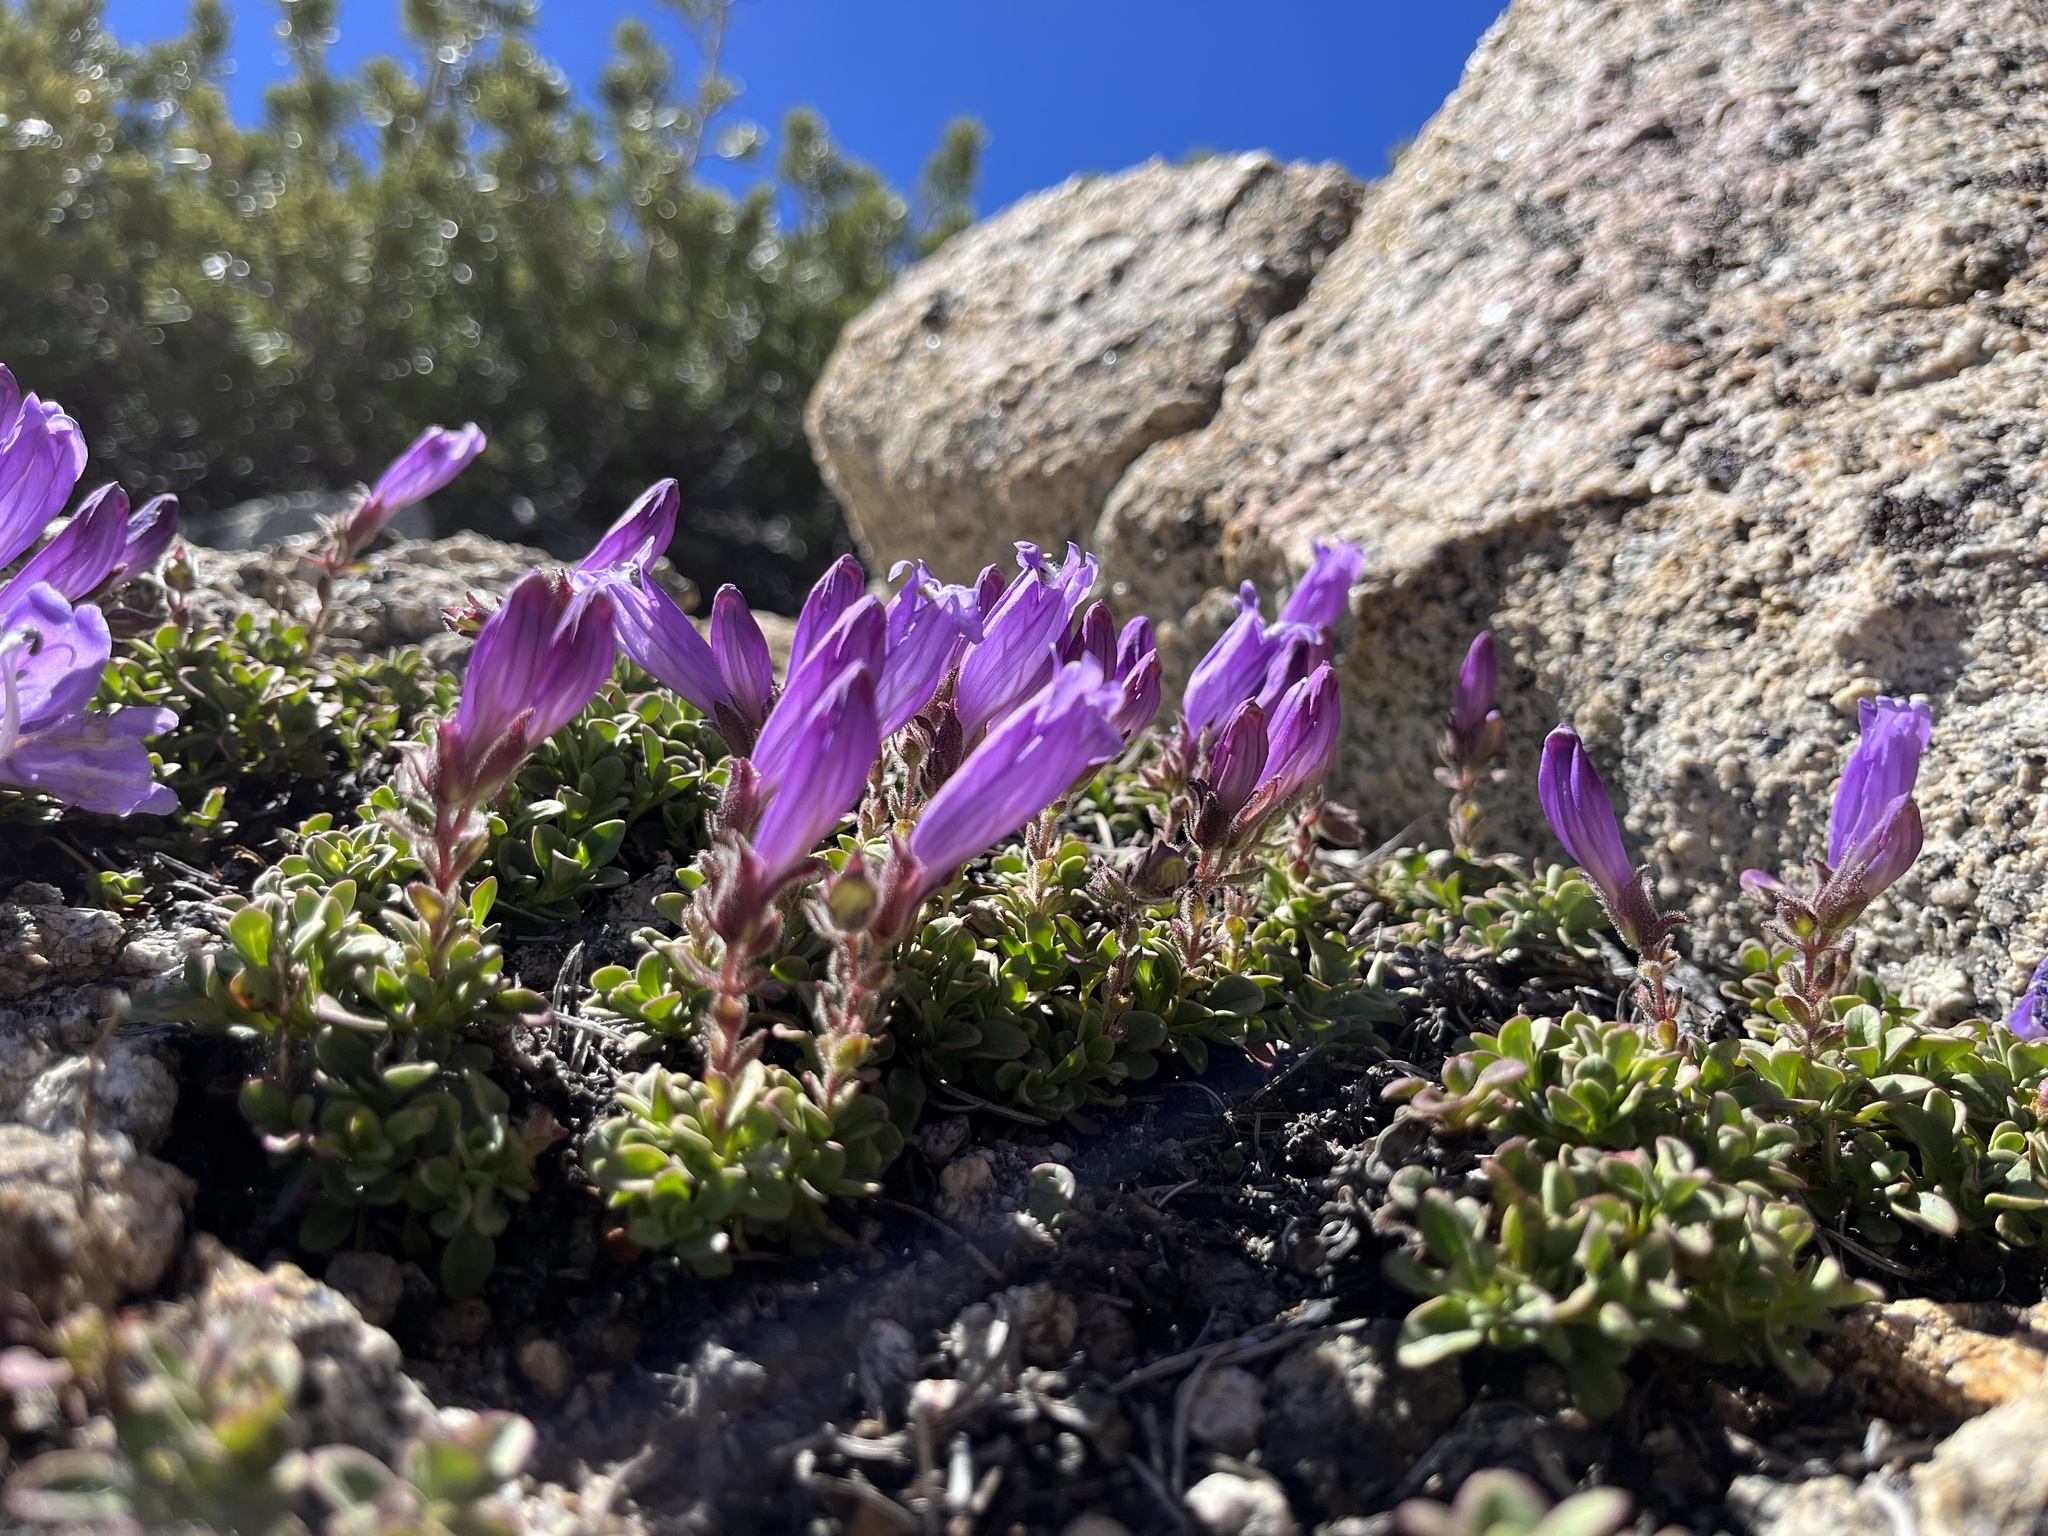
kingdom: Plantae
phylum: Tracheophyta
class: Magnoliopsida
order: Lamiales
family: Plantaginaceae
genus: Penstemon
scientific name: Penstemon davidsonii
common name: Davidson's penstemon
